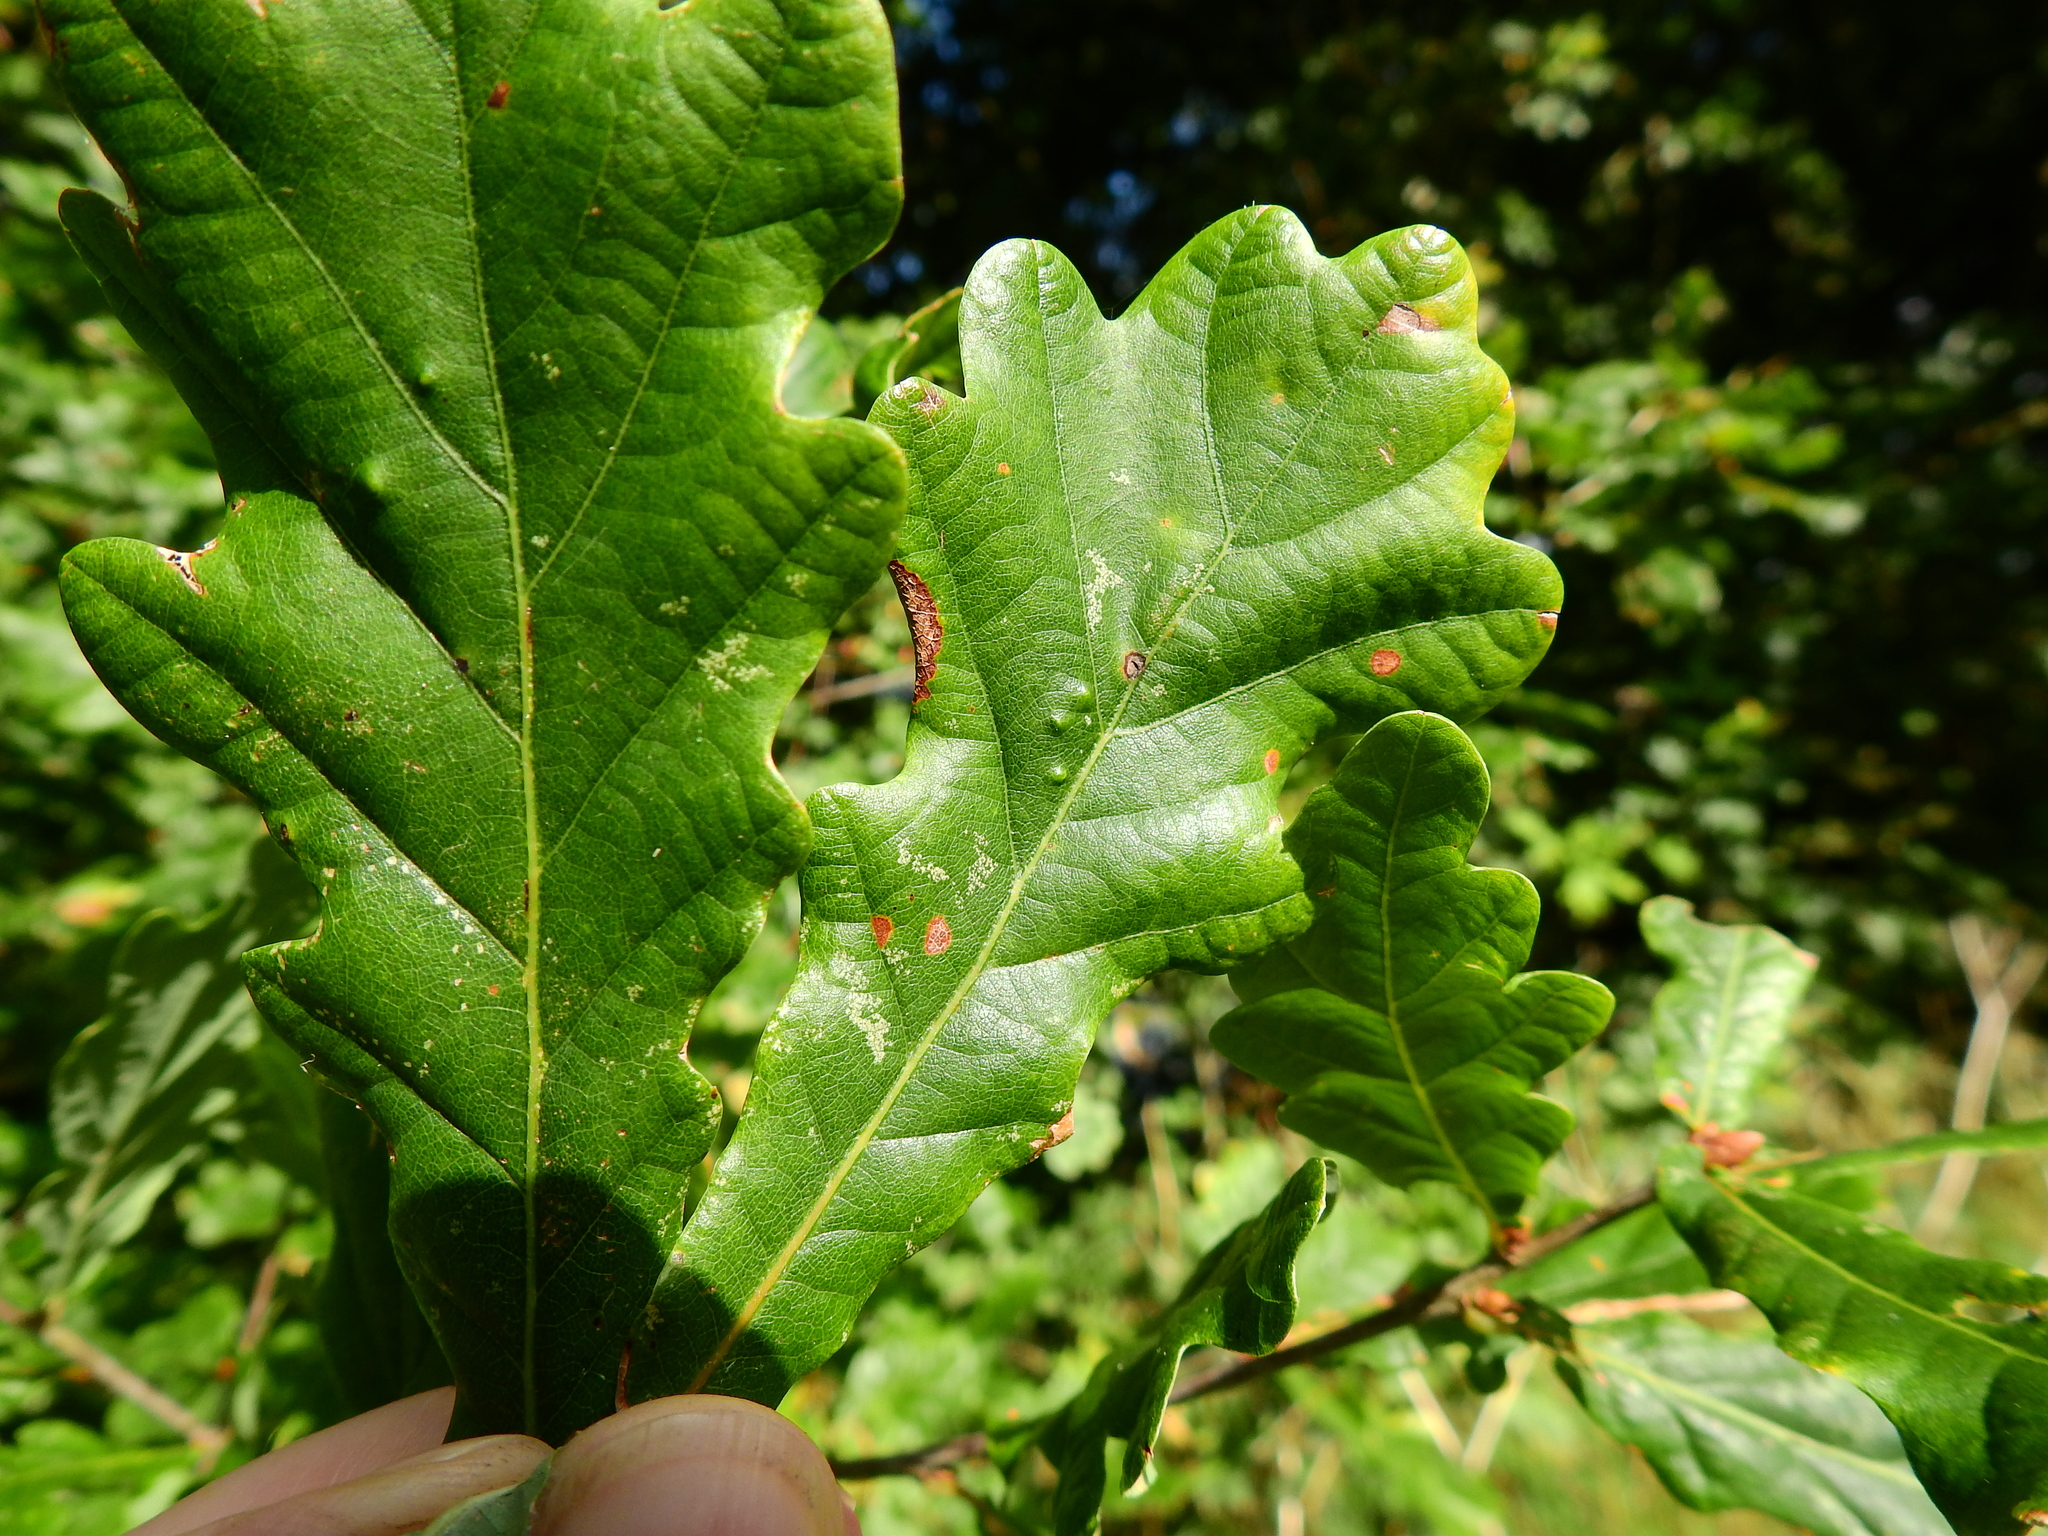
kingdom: Animalia
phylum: Arthropoda
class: Insecta
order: Hemiptera
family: Triozidae
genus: Trioza
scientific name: Trioza remota
